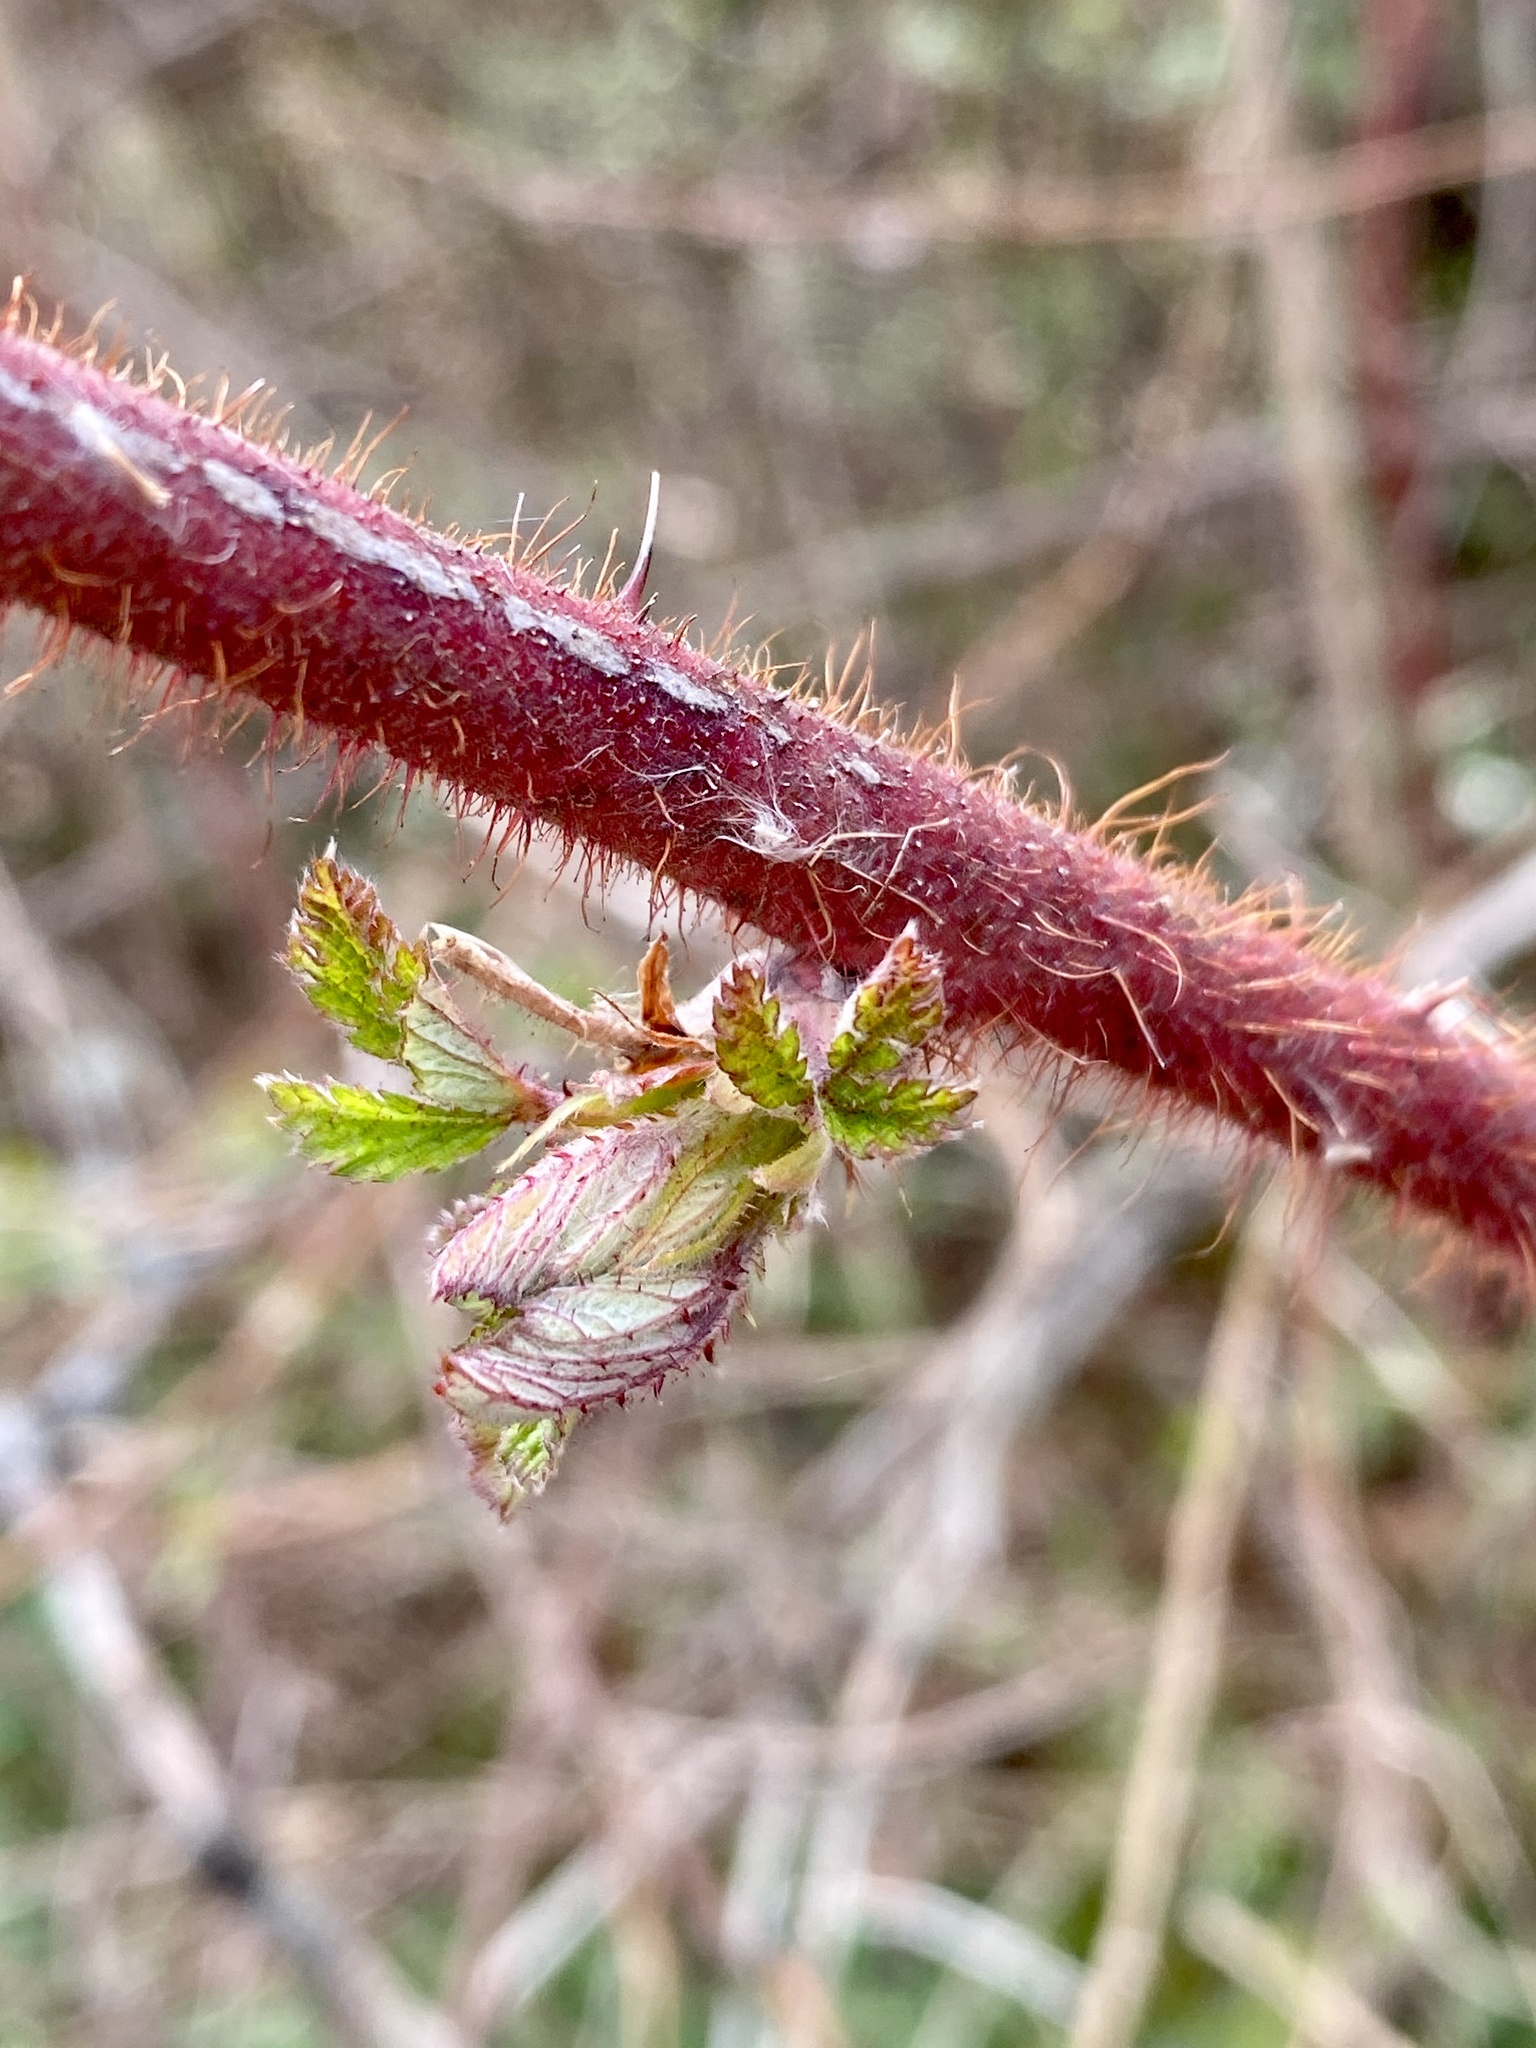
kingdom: Plantae
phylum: Tracheophyta
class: Magnoliopsida
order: Rosales
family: Rosaceae
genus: Rubus
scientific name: Rubus phoenicolasius
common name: Japanese wineberry
